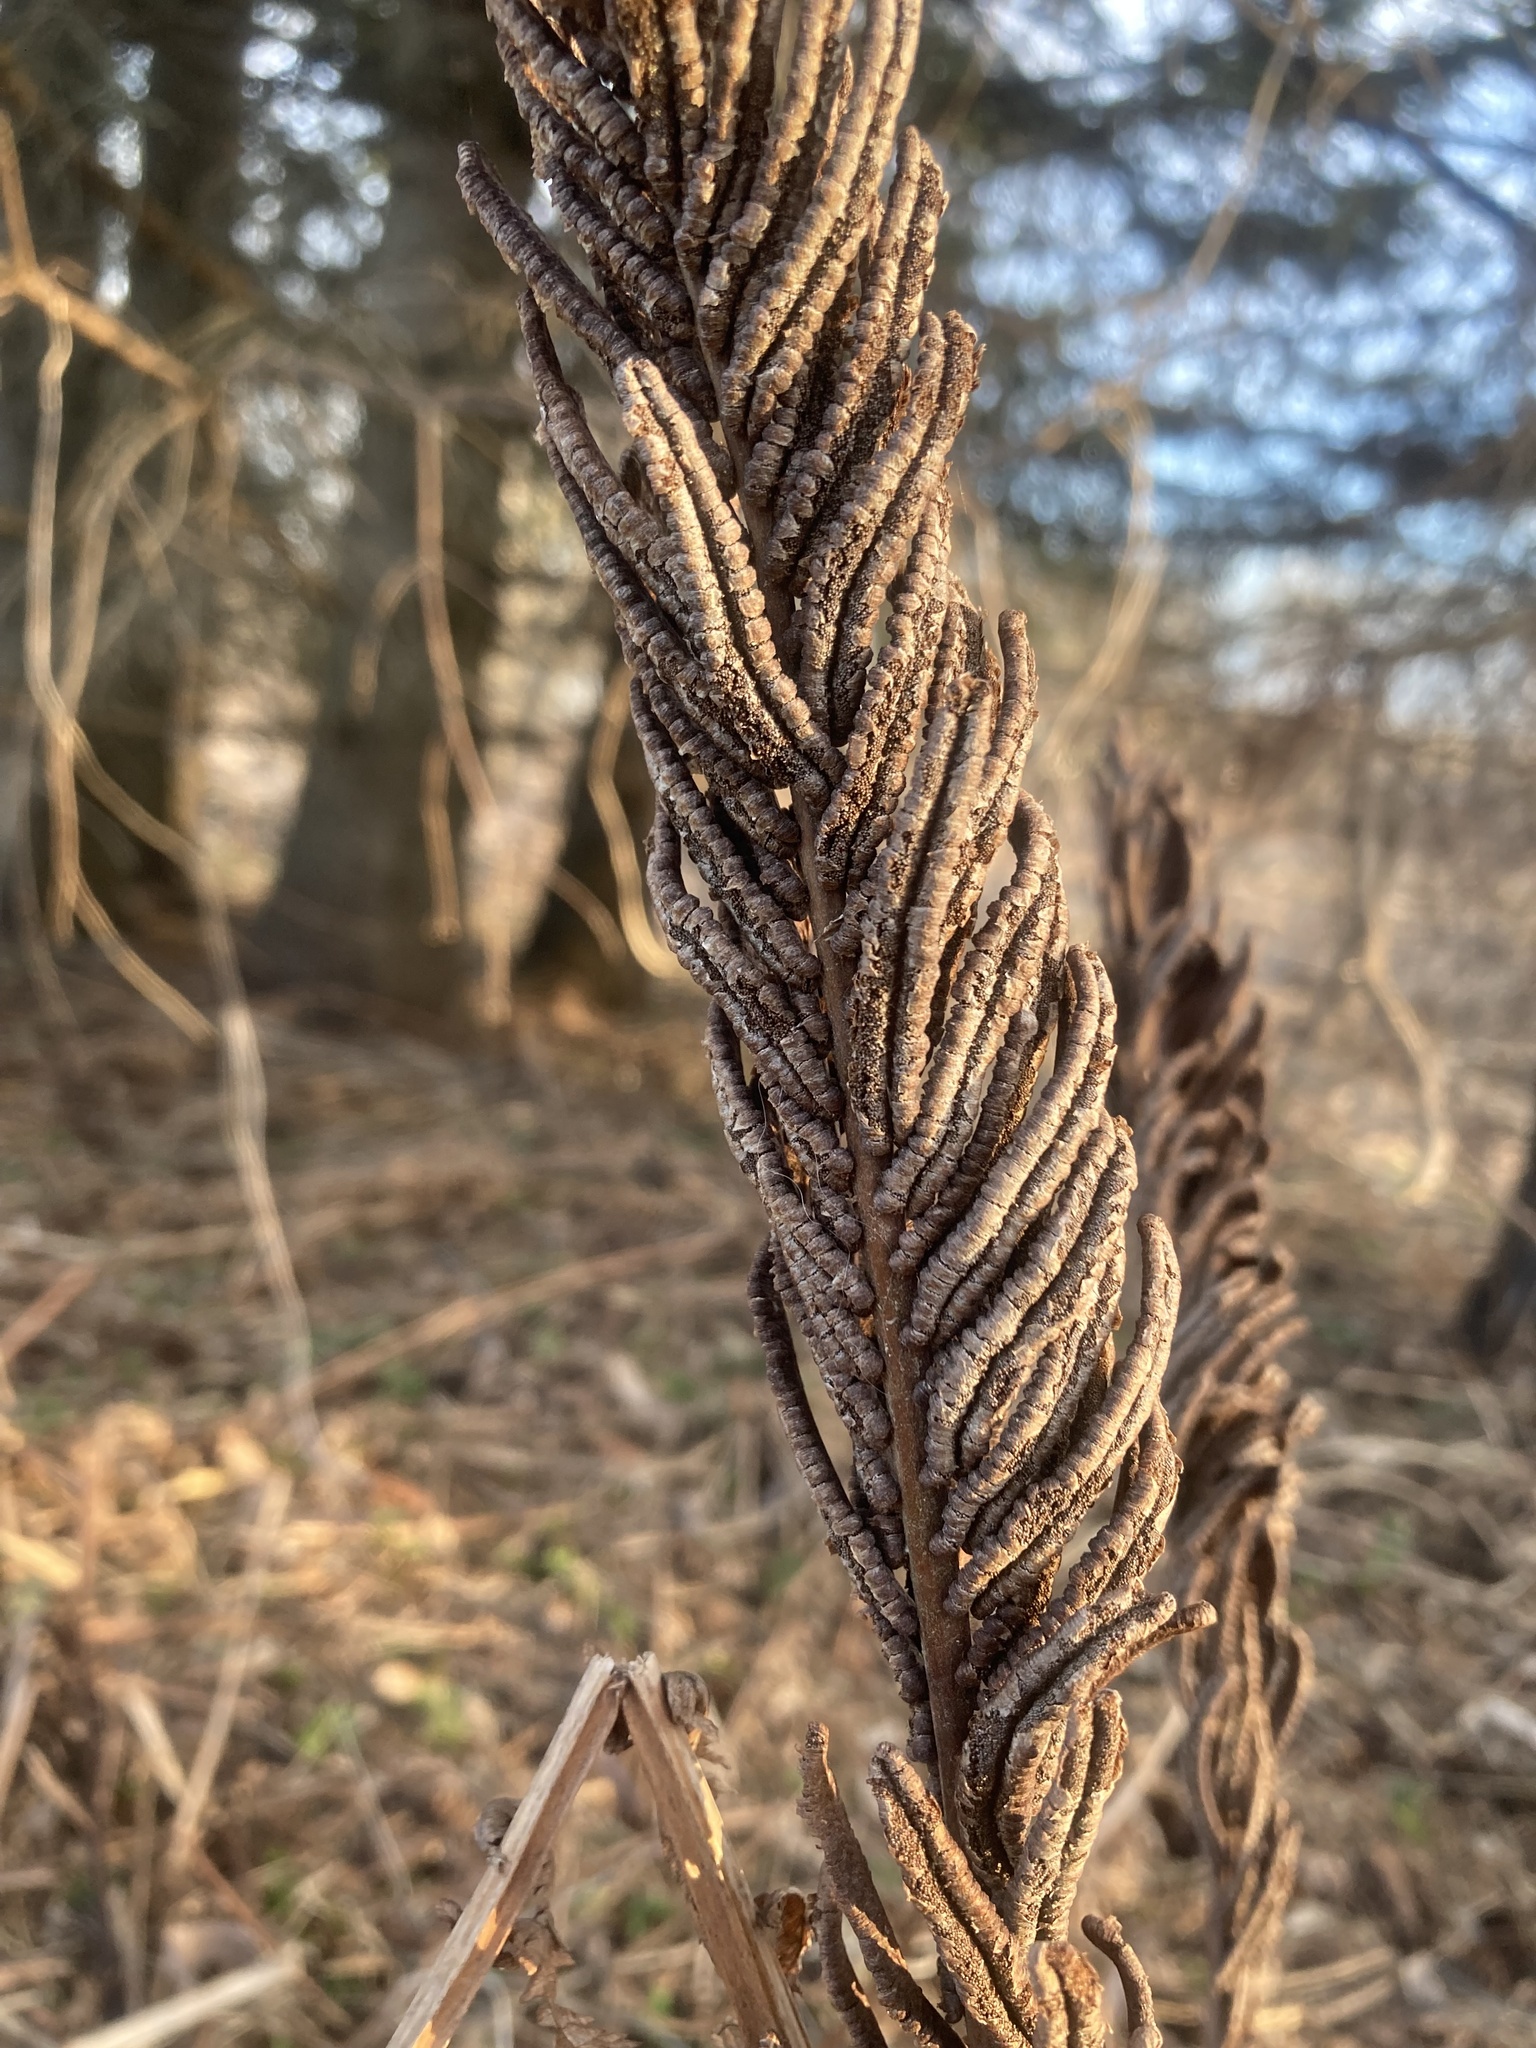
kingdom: Plantae
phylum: Tracheophyta
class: Polypodiopsida
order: Polypodiales
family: Onocleaceae
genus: Matteuccia
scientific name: Matteuccia struthiopteris
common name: Ostrich fern
